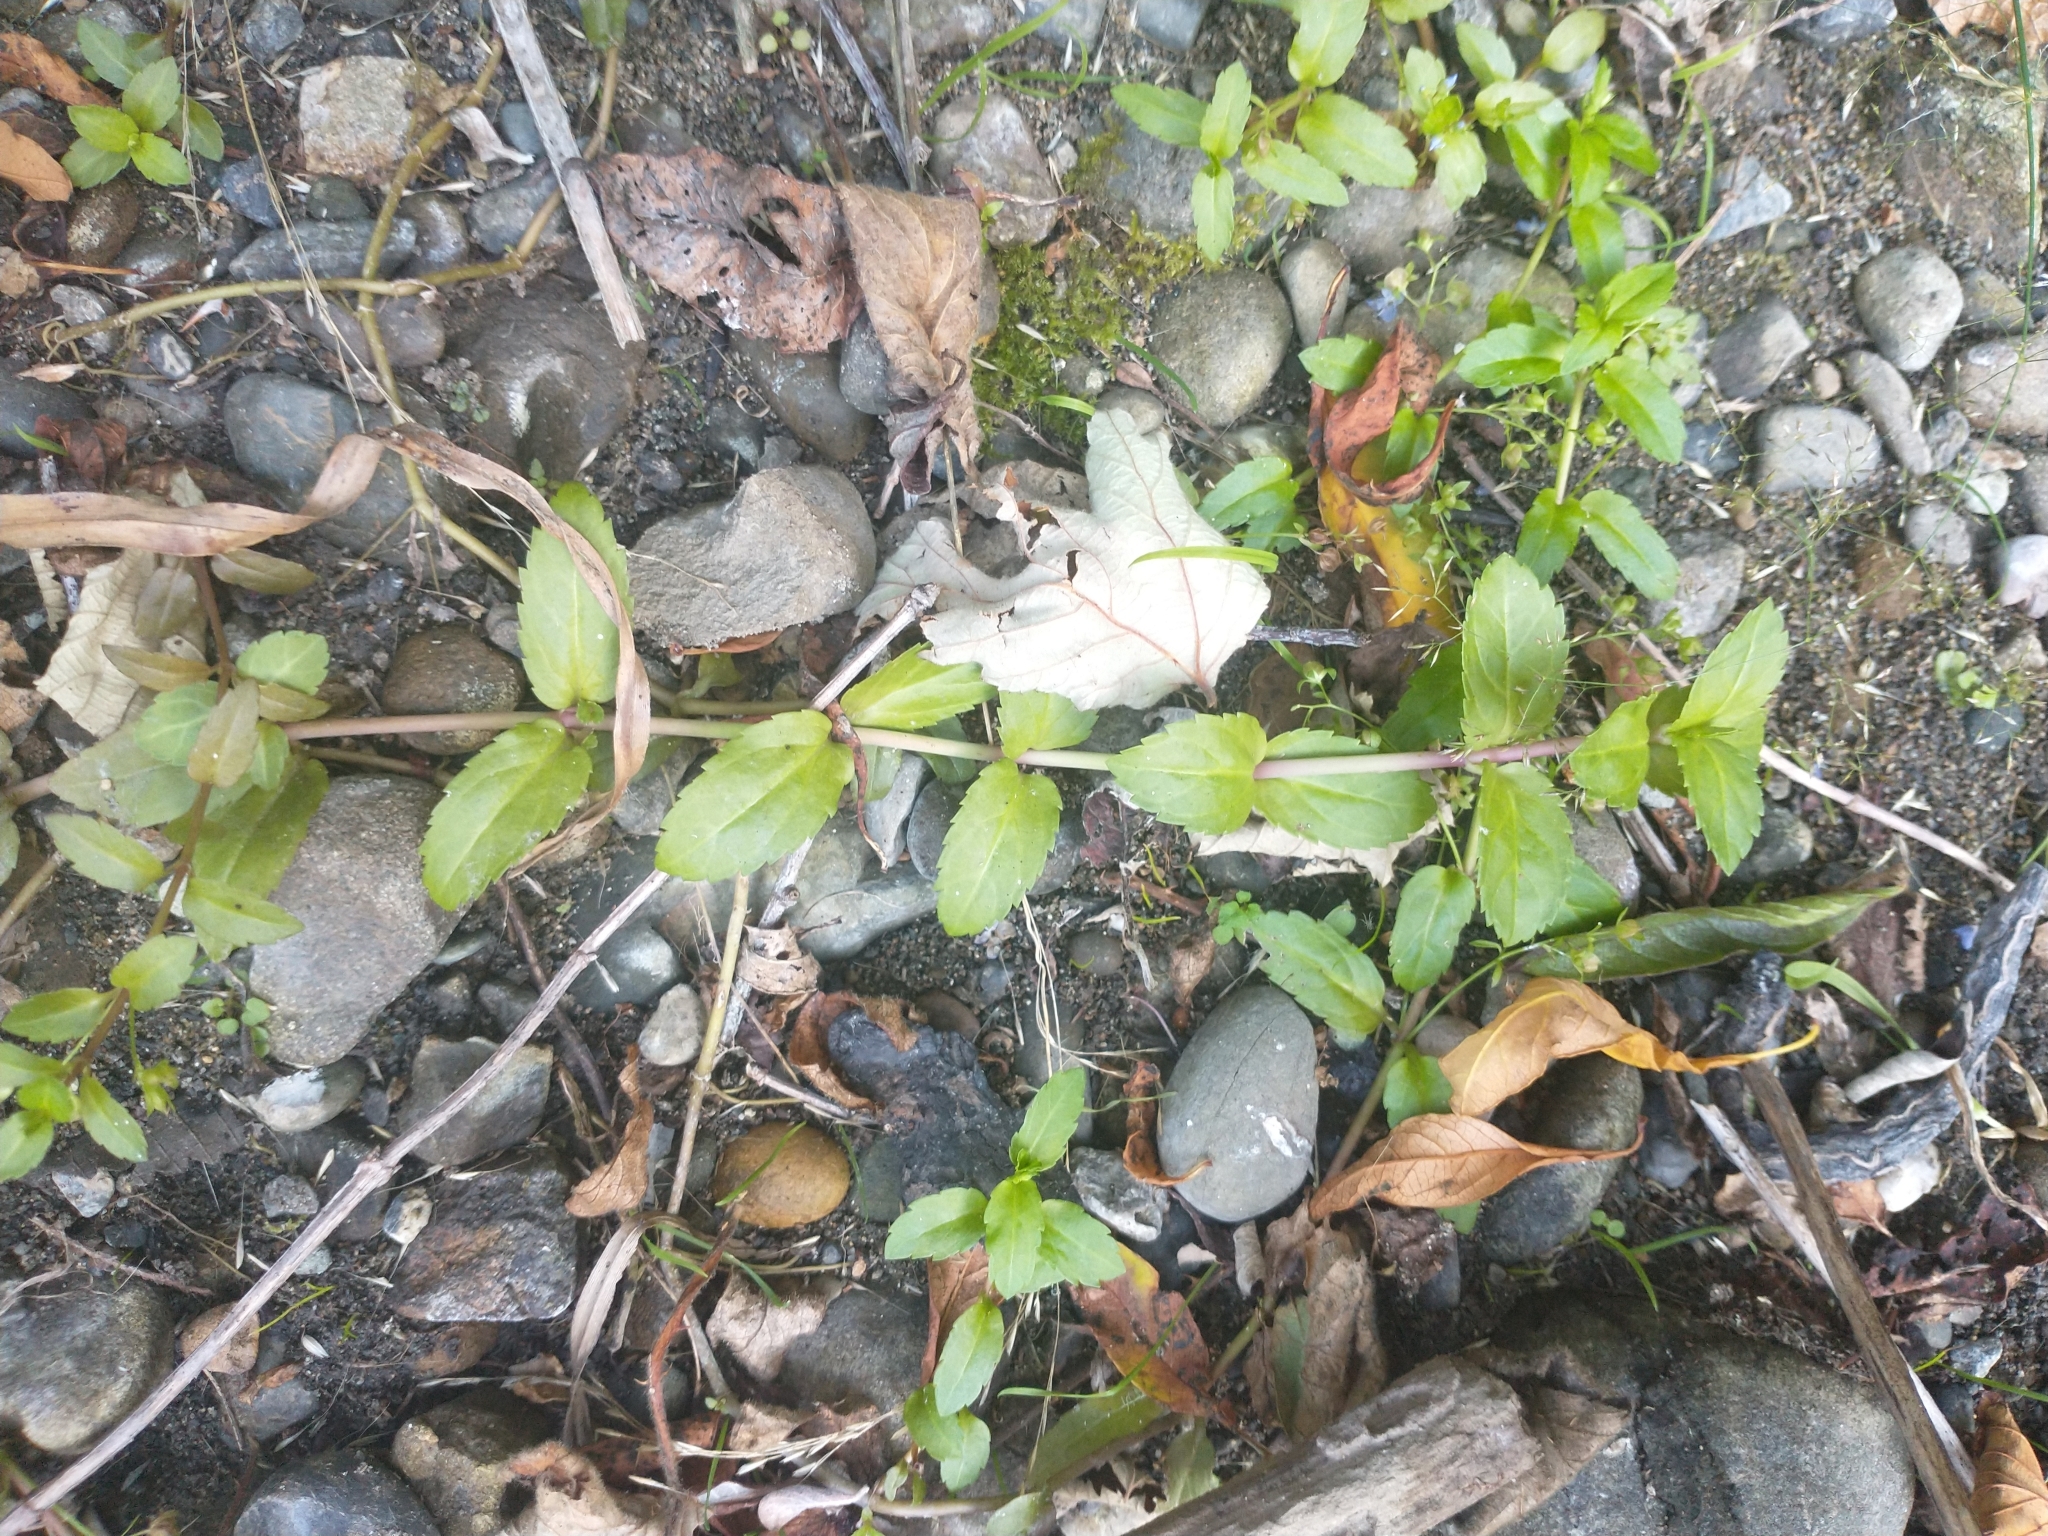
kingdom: Plantae
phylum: Tracheophyta
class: Magnoliopsida
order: Lamiales
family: Plantaginaceae
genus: Veronica
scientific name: Veronica americana
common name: American brooklime
